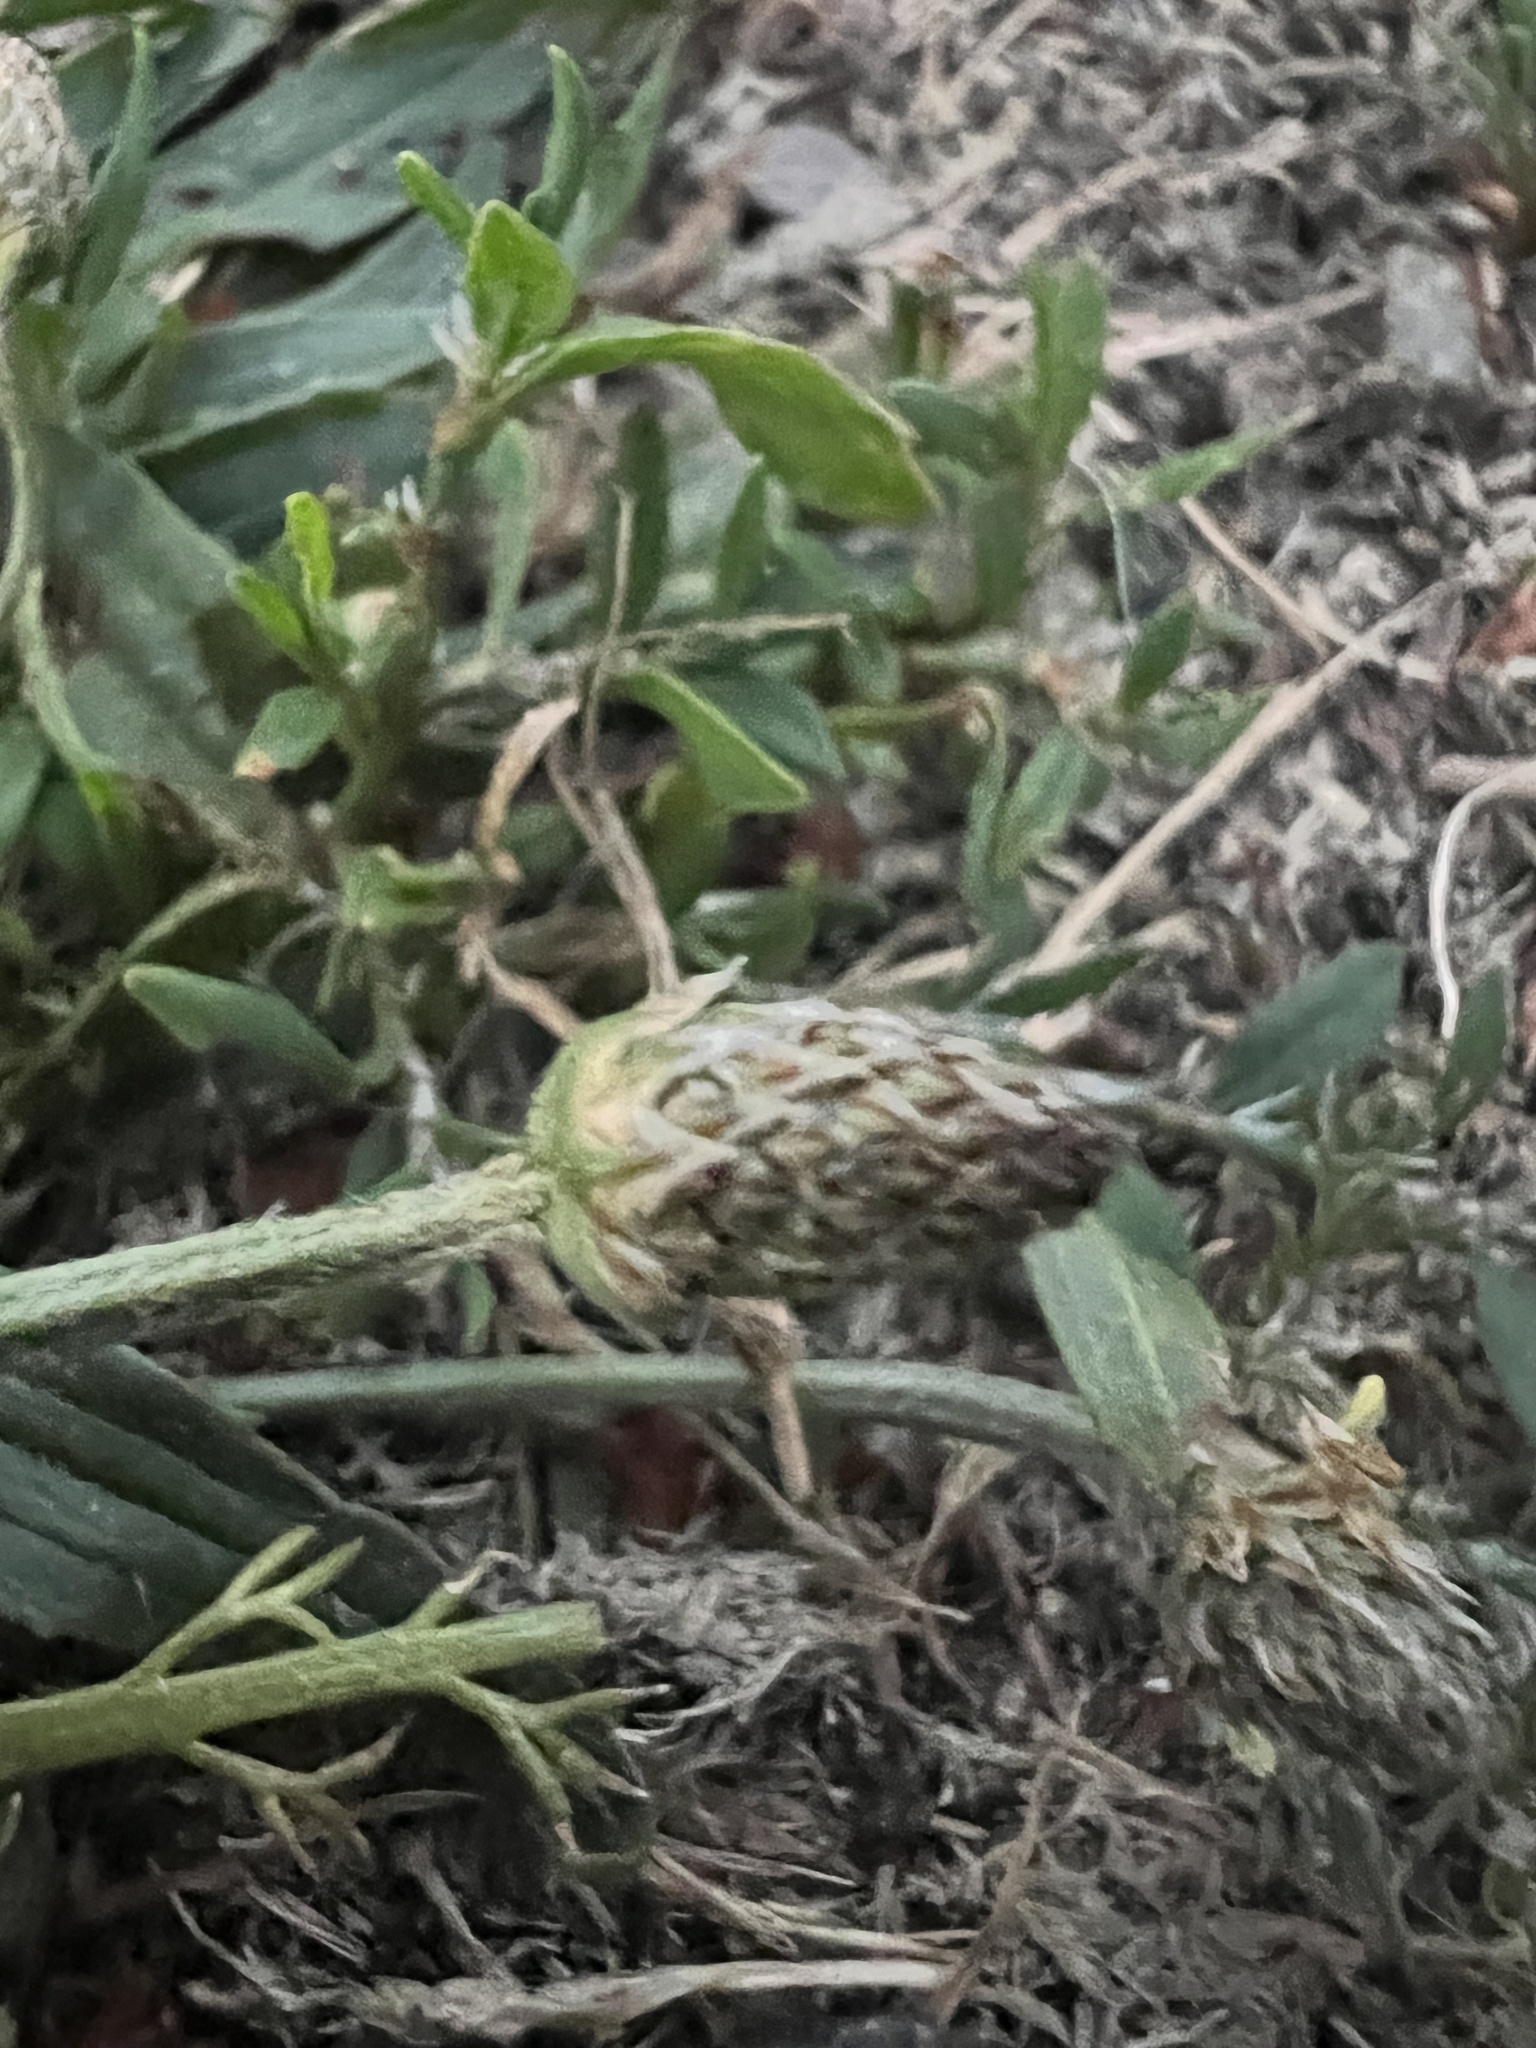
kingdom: Plantae
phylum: Tracheophyta
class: Magnoliopsida
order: Lamiales
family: Plantaginaceae
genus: Plantago
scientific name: Plantago lanceolata
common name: Ribwort plantain
